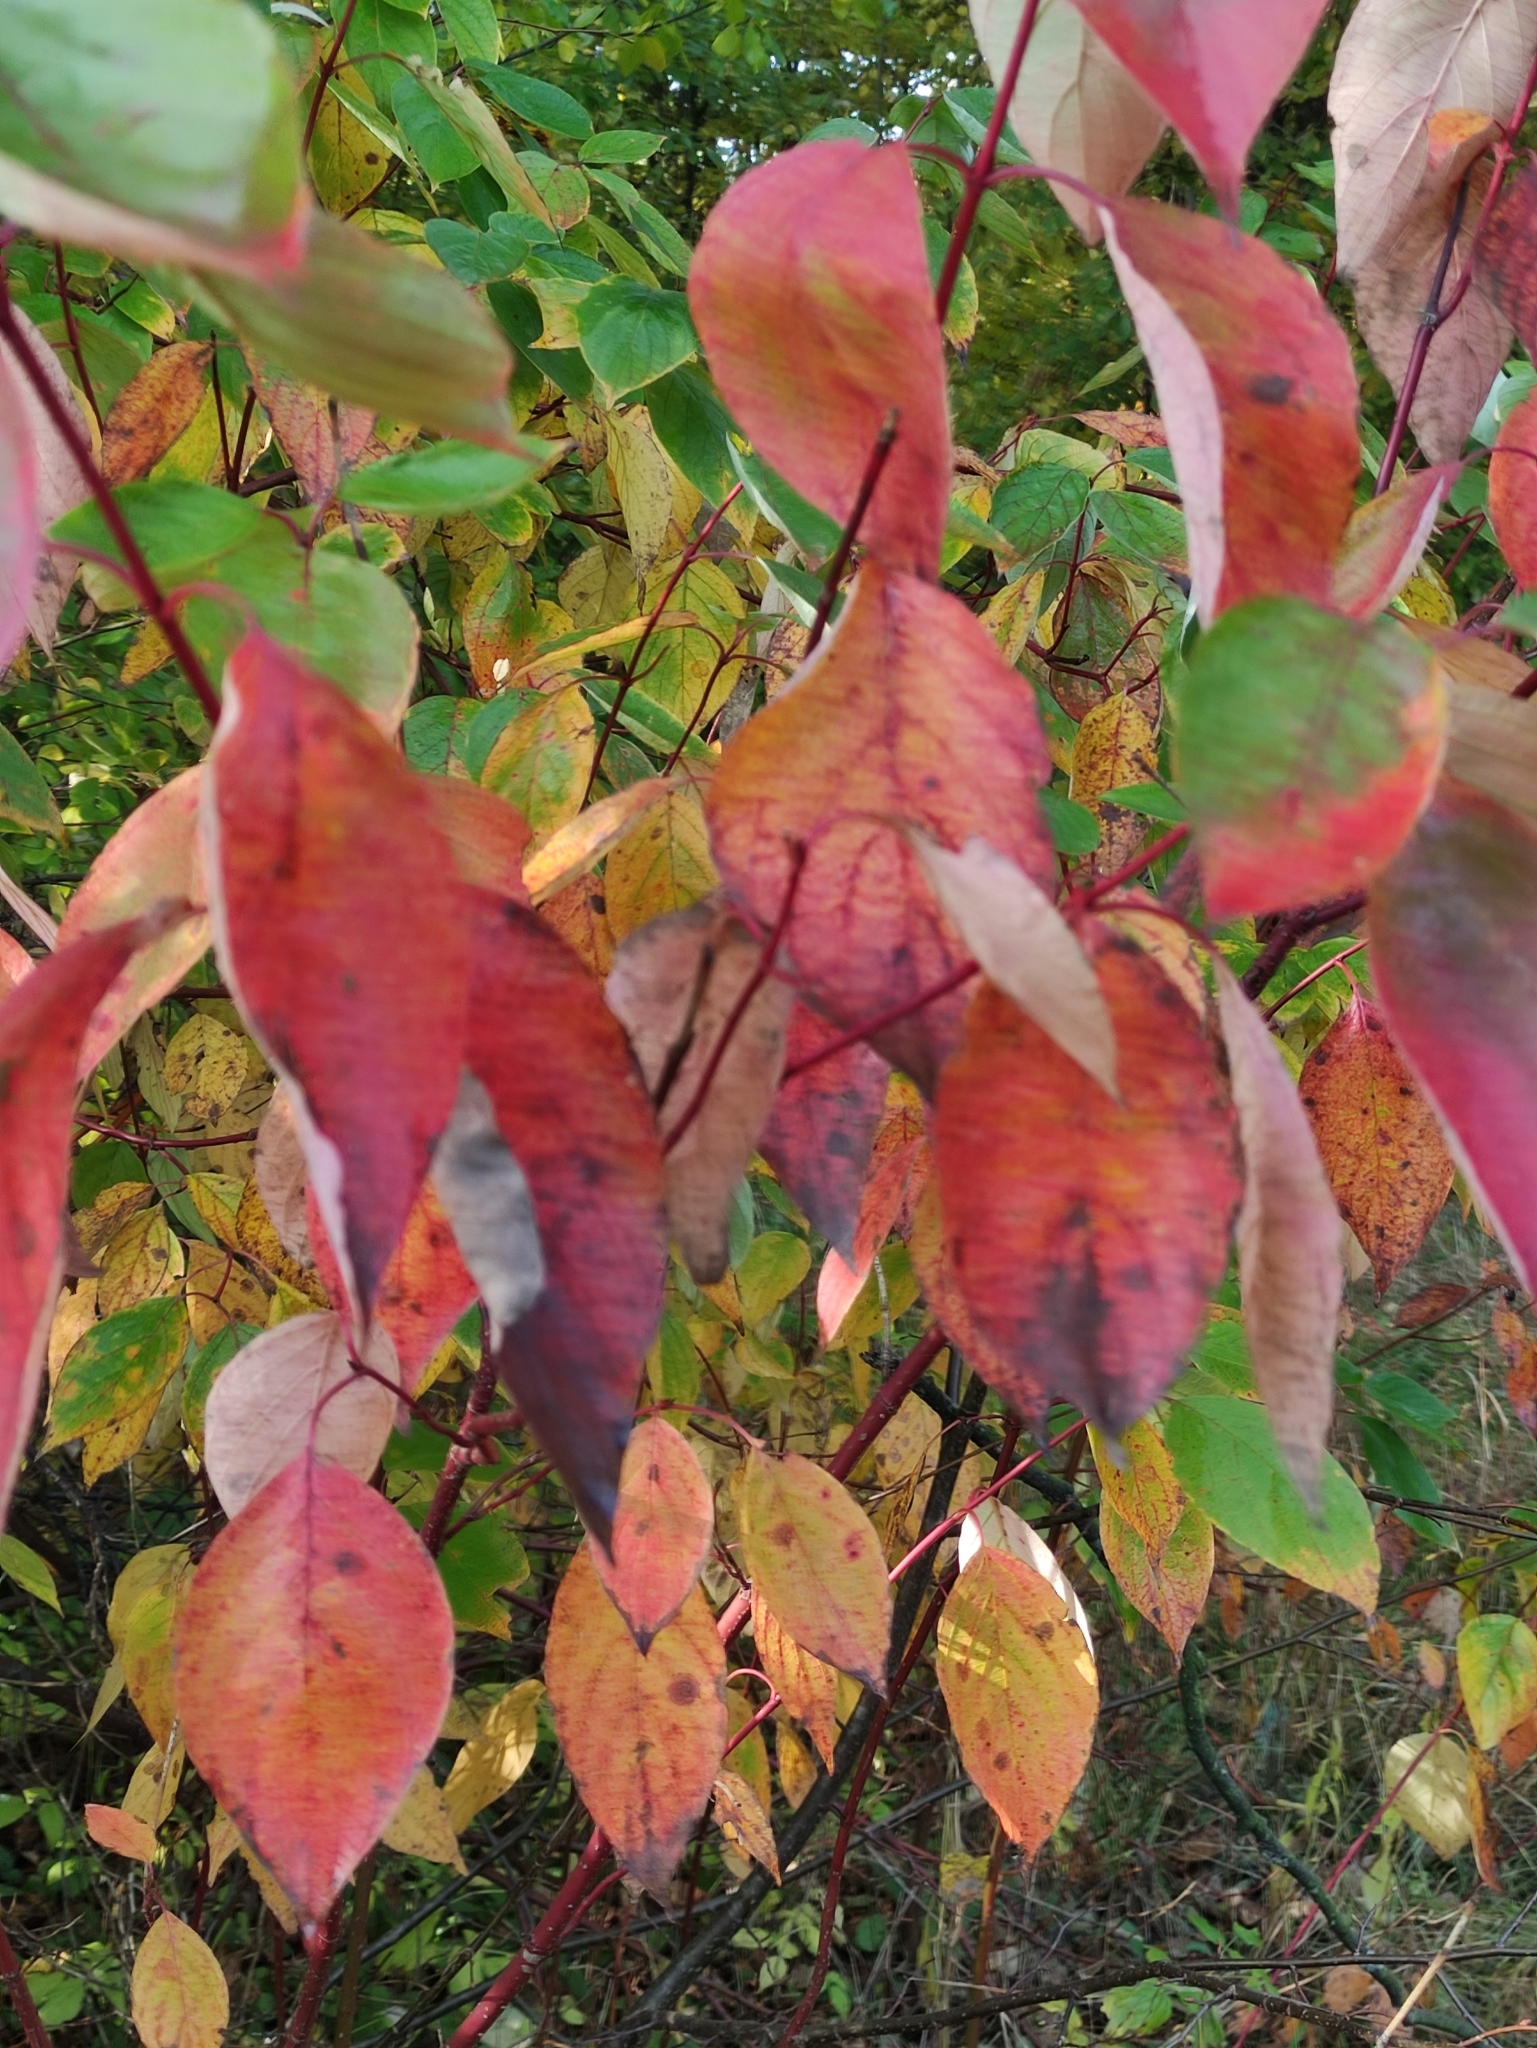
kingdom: Plantae
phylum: Tracheophyta
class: Magnoliopsida
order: Cornales
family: Cornaceae
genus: Cornus
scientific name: Cornus alba
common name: White dogwood
